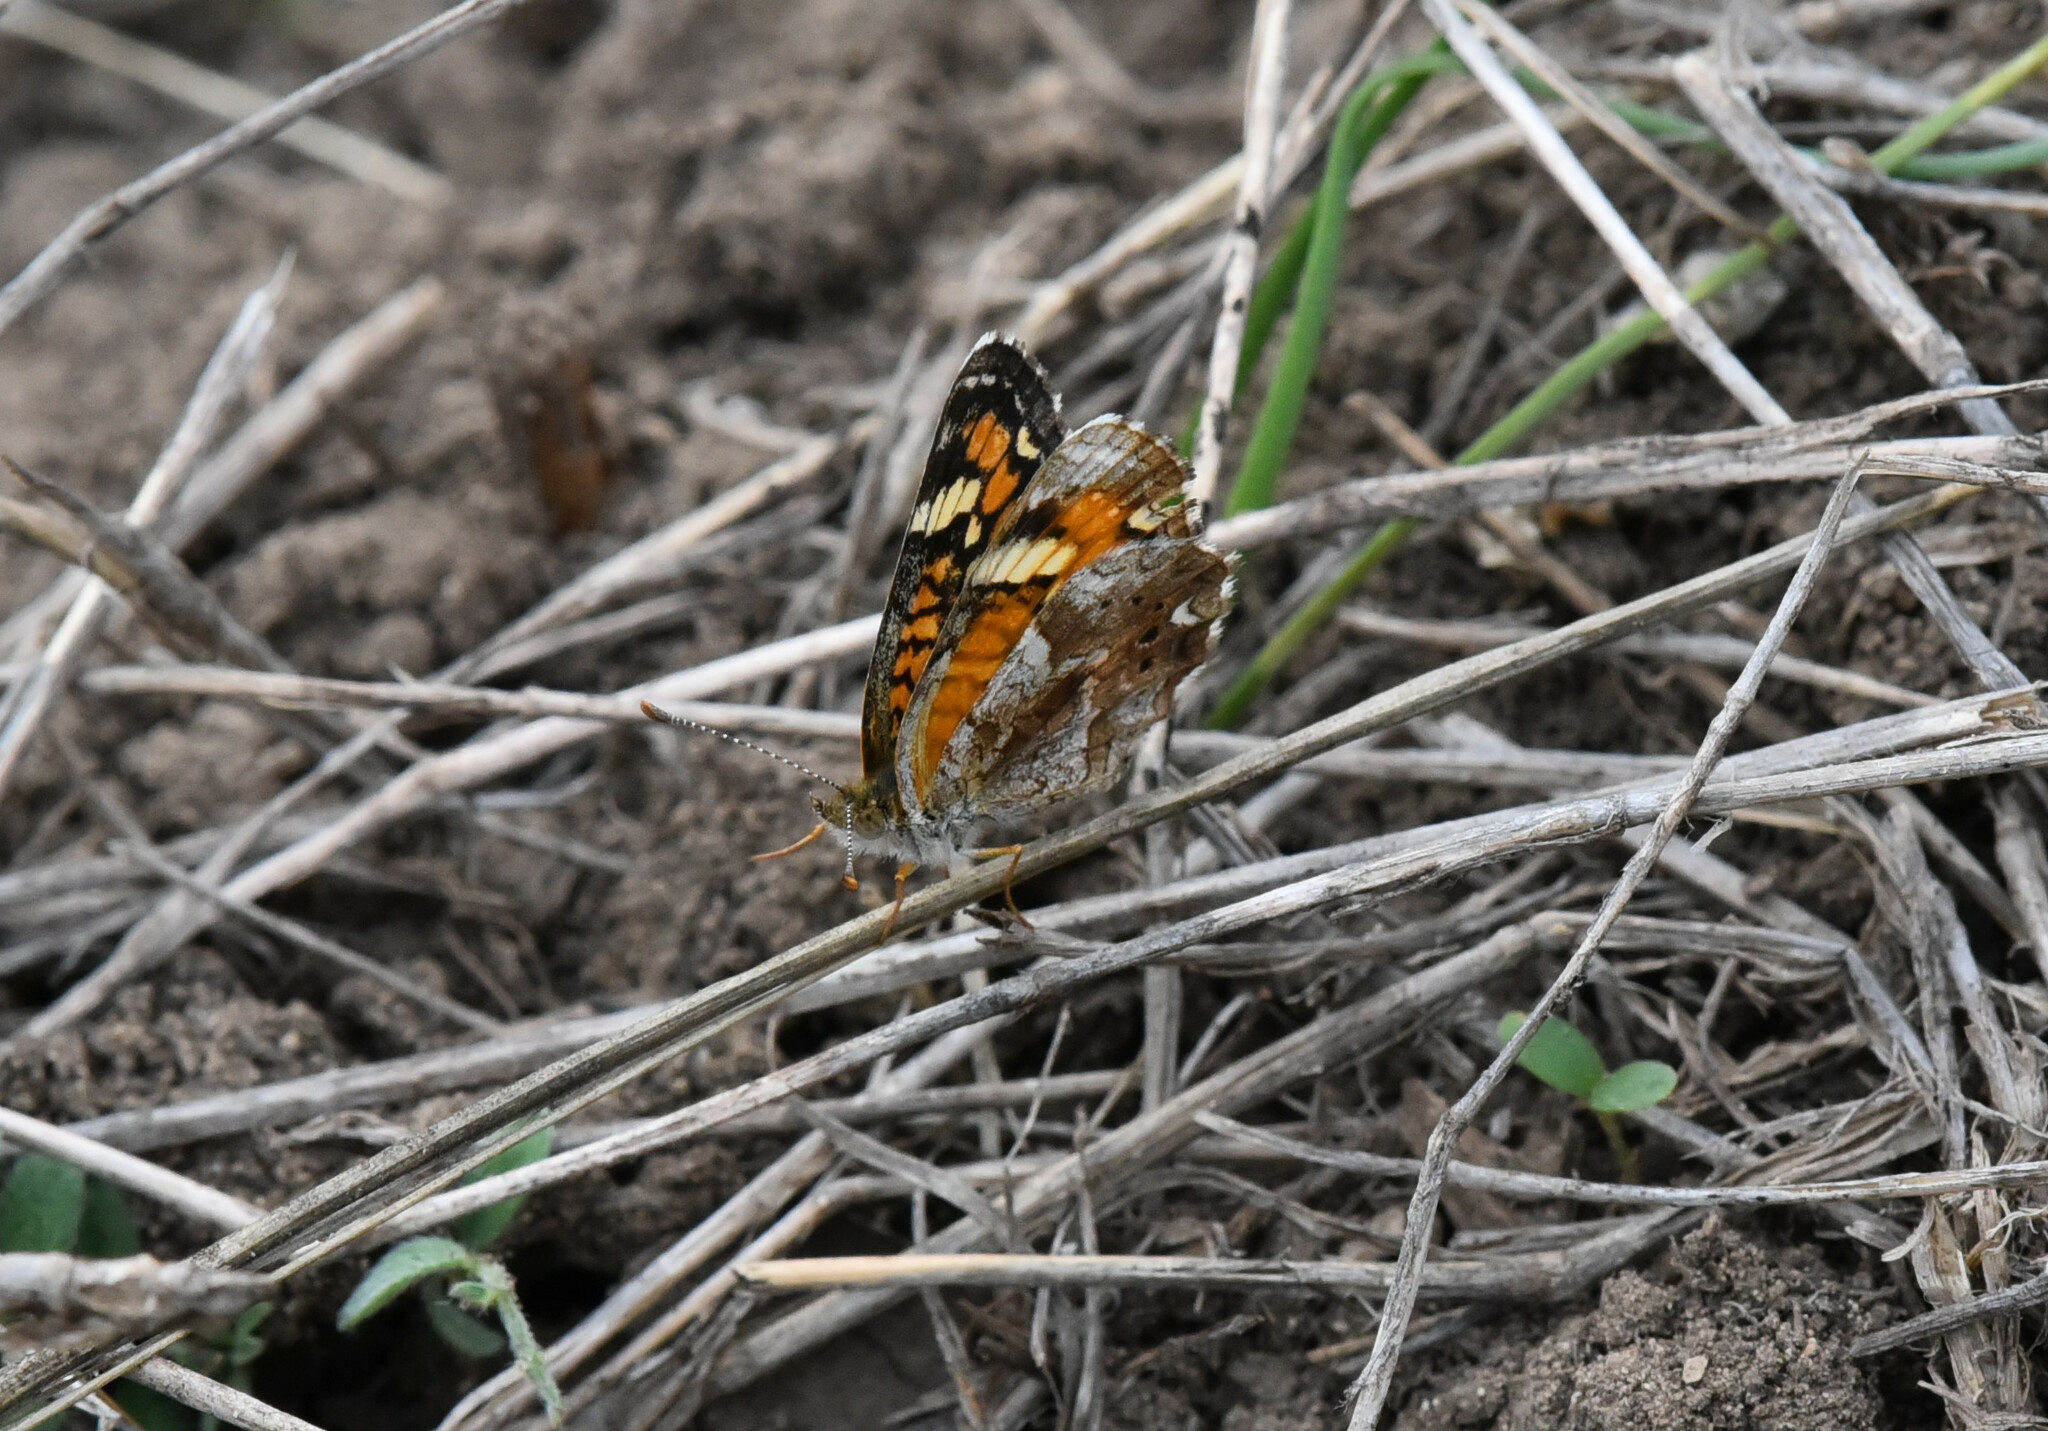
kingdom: Animalia
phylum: Arthropoda
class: Insecta
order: Lepidoptera
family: Nymphalidae
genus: Phyciodes
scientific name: Phyciodes phaon
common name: Phaon crescent
